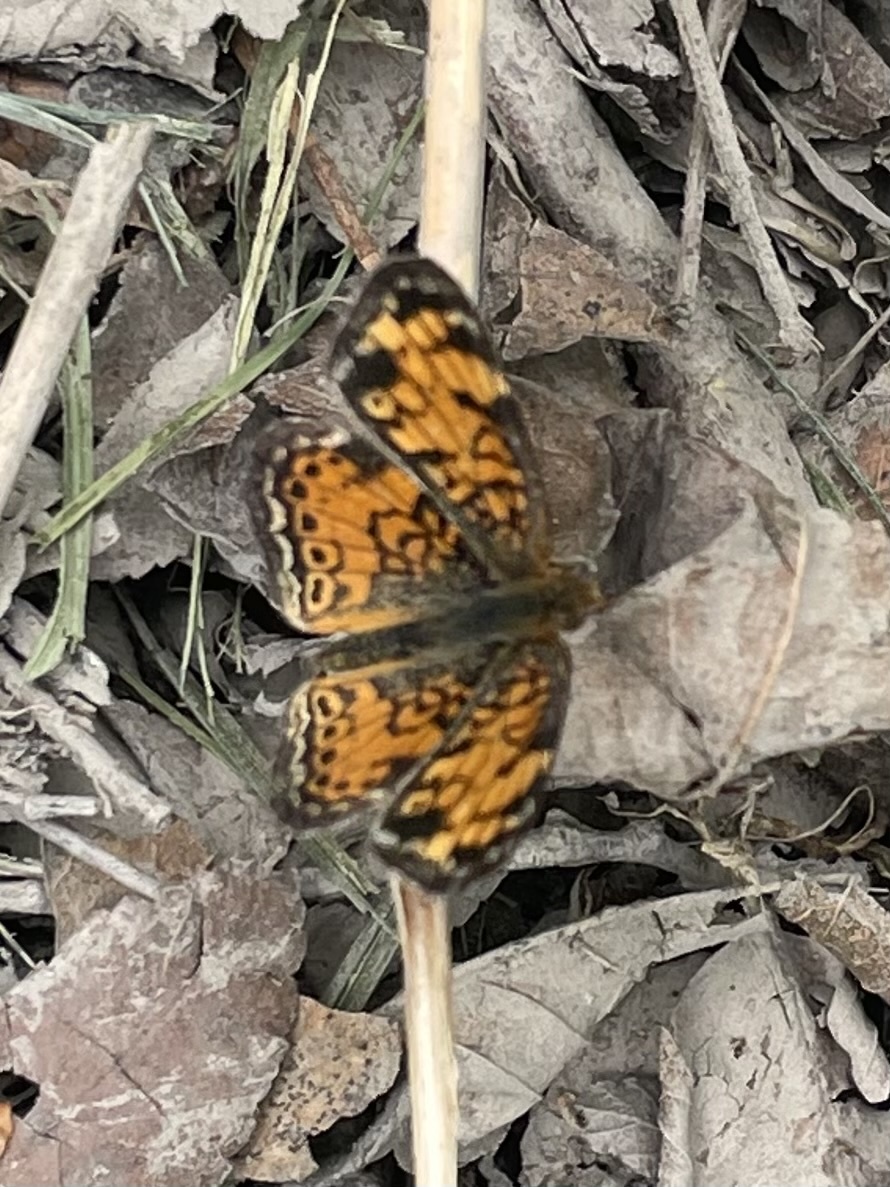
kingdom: Animalia
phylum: Arthropoda
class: Insecta
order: Lepidoptera
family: Nymphalidae
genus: Phyciodes
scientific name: Phyciodes tharos
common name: Pearl crescent
